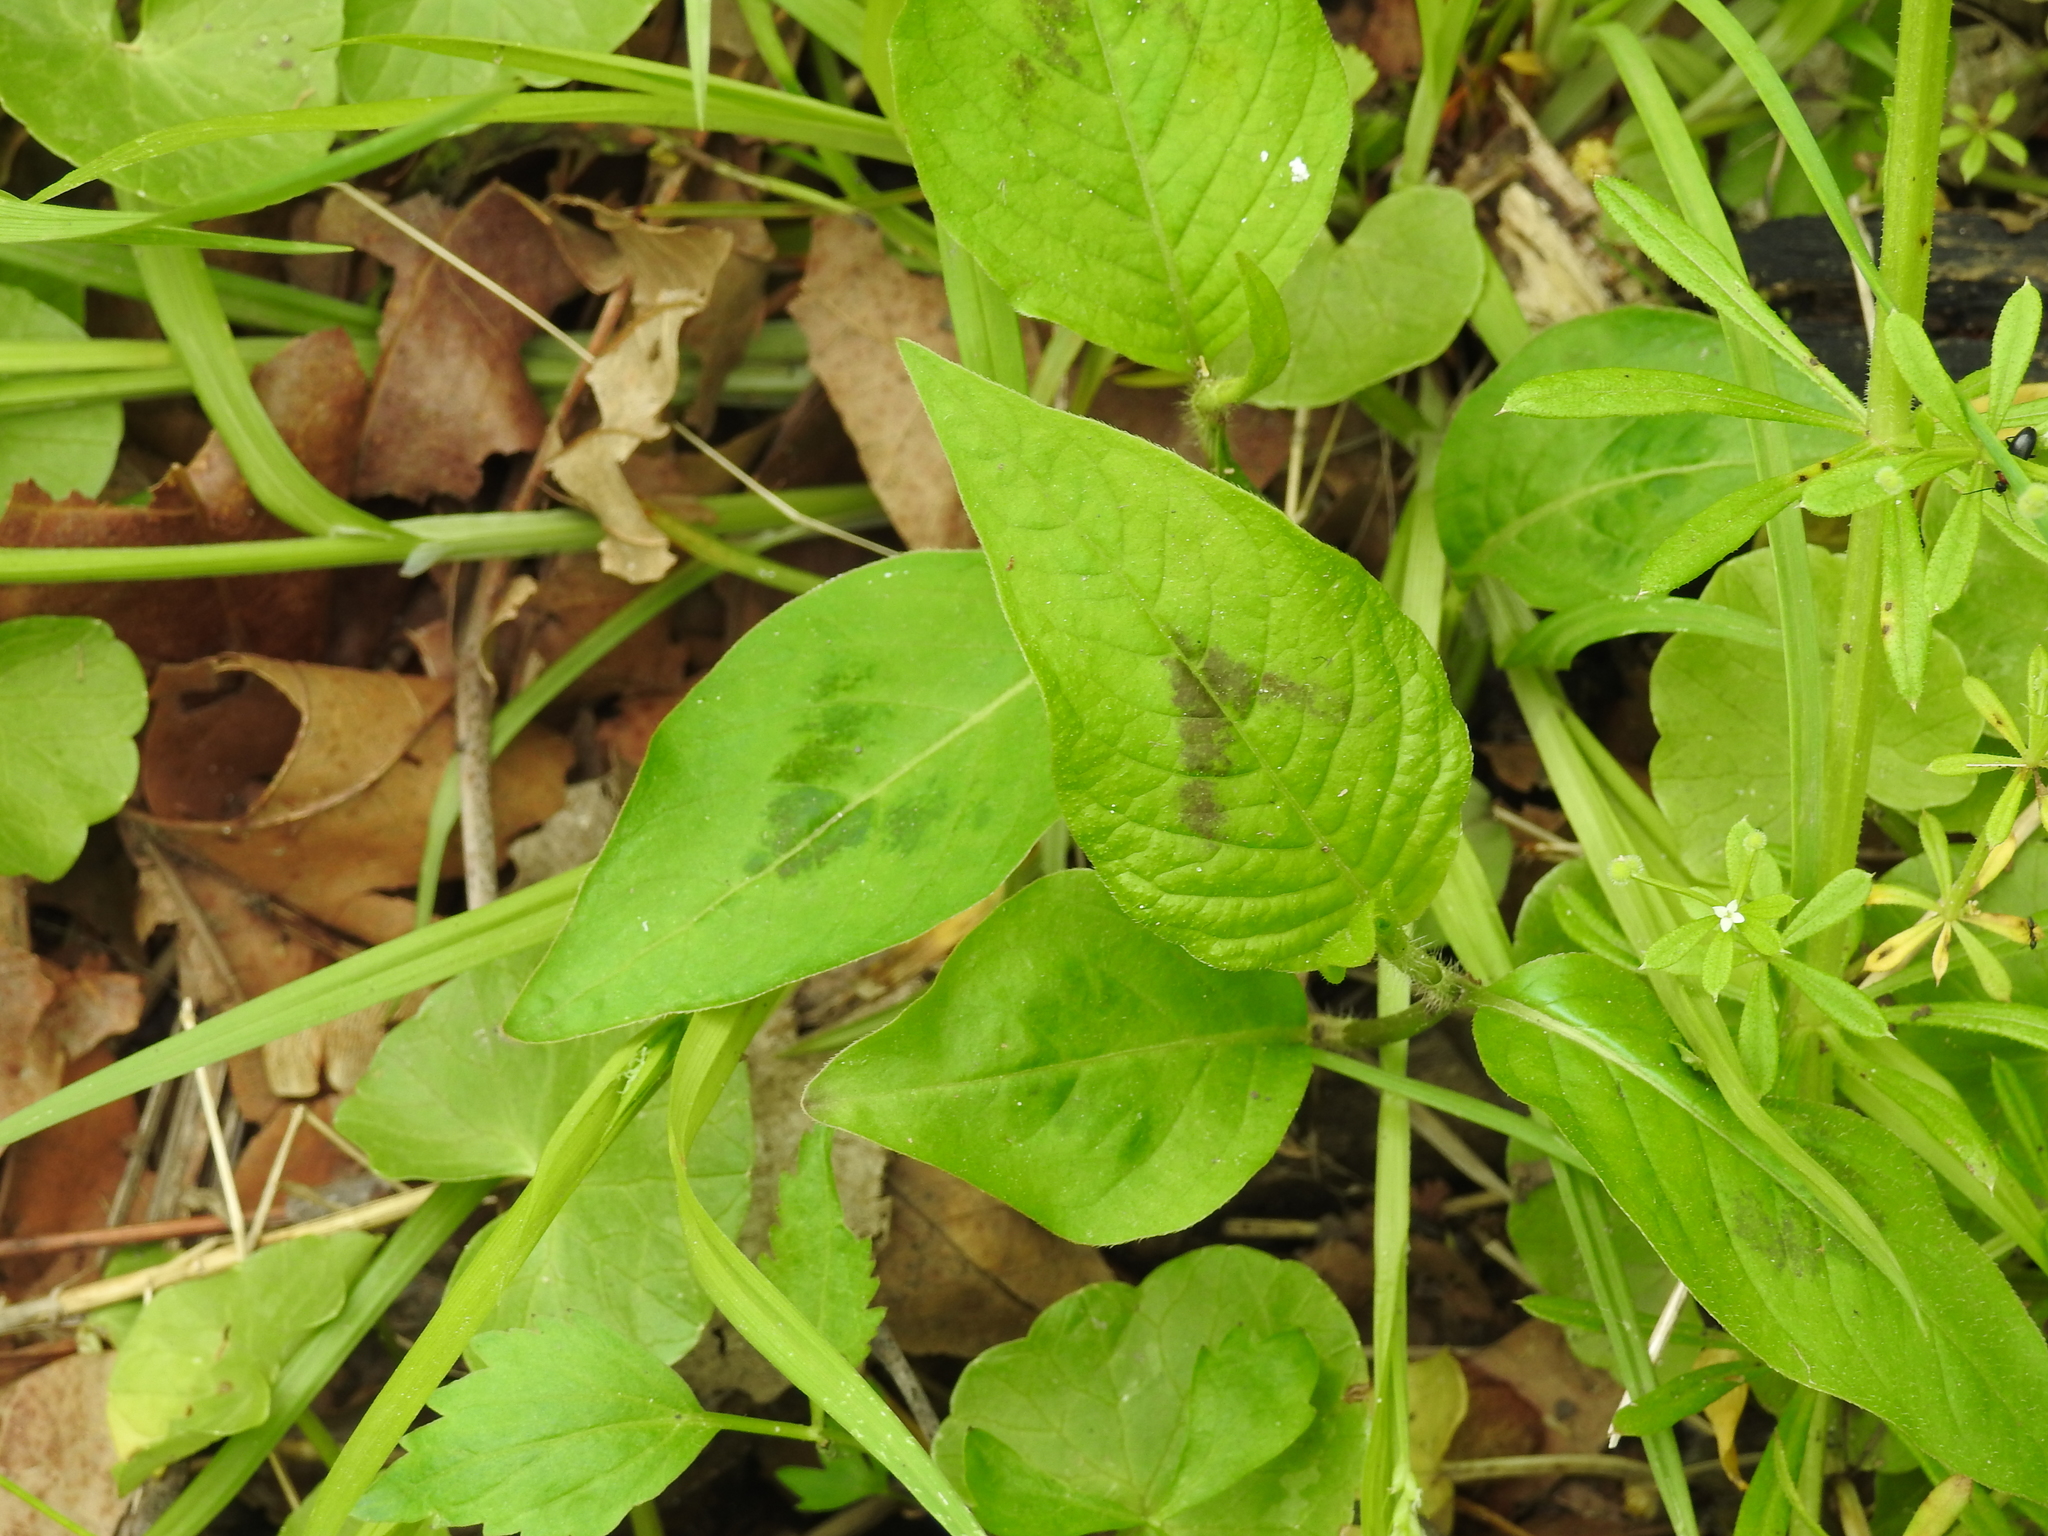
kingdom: Plantae
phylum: Tracheophyta
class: Magnoliopsida
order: Caryophyllales
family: Polygonaceae
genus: Persicaria
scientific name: Persicaria virginiana
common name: Jumpseed
